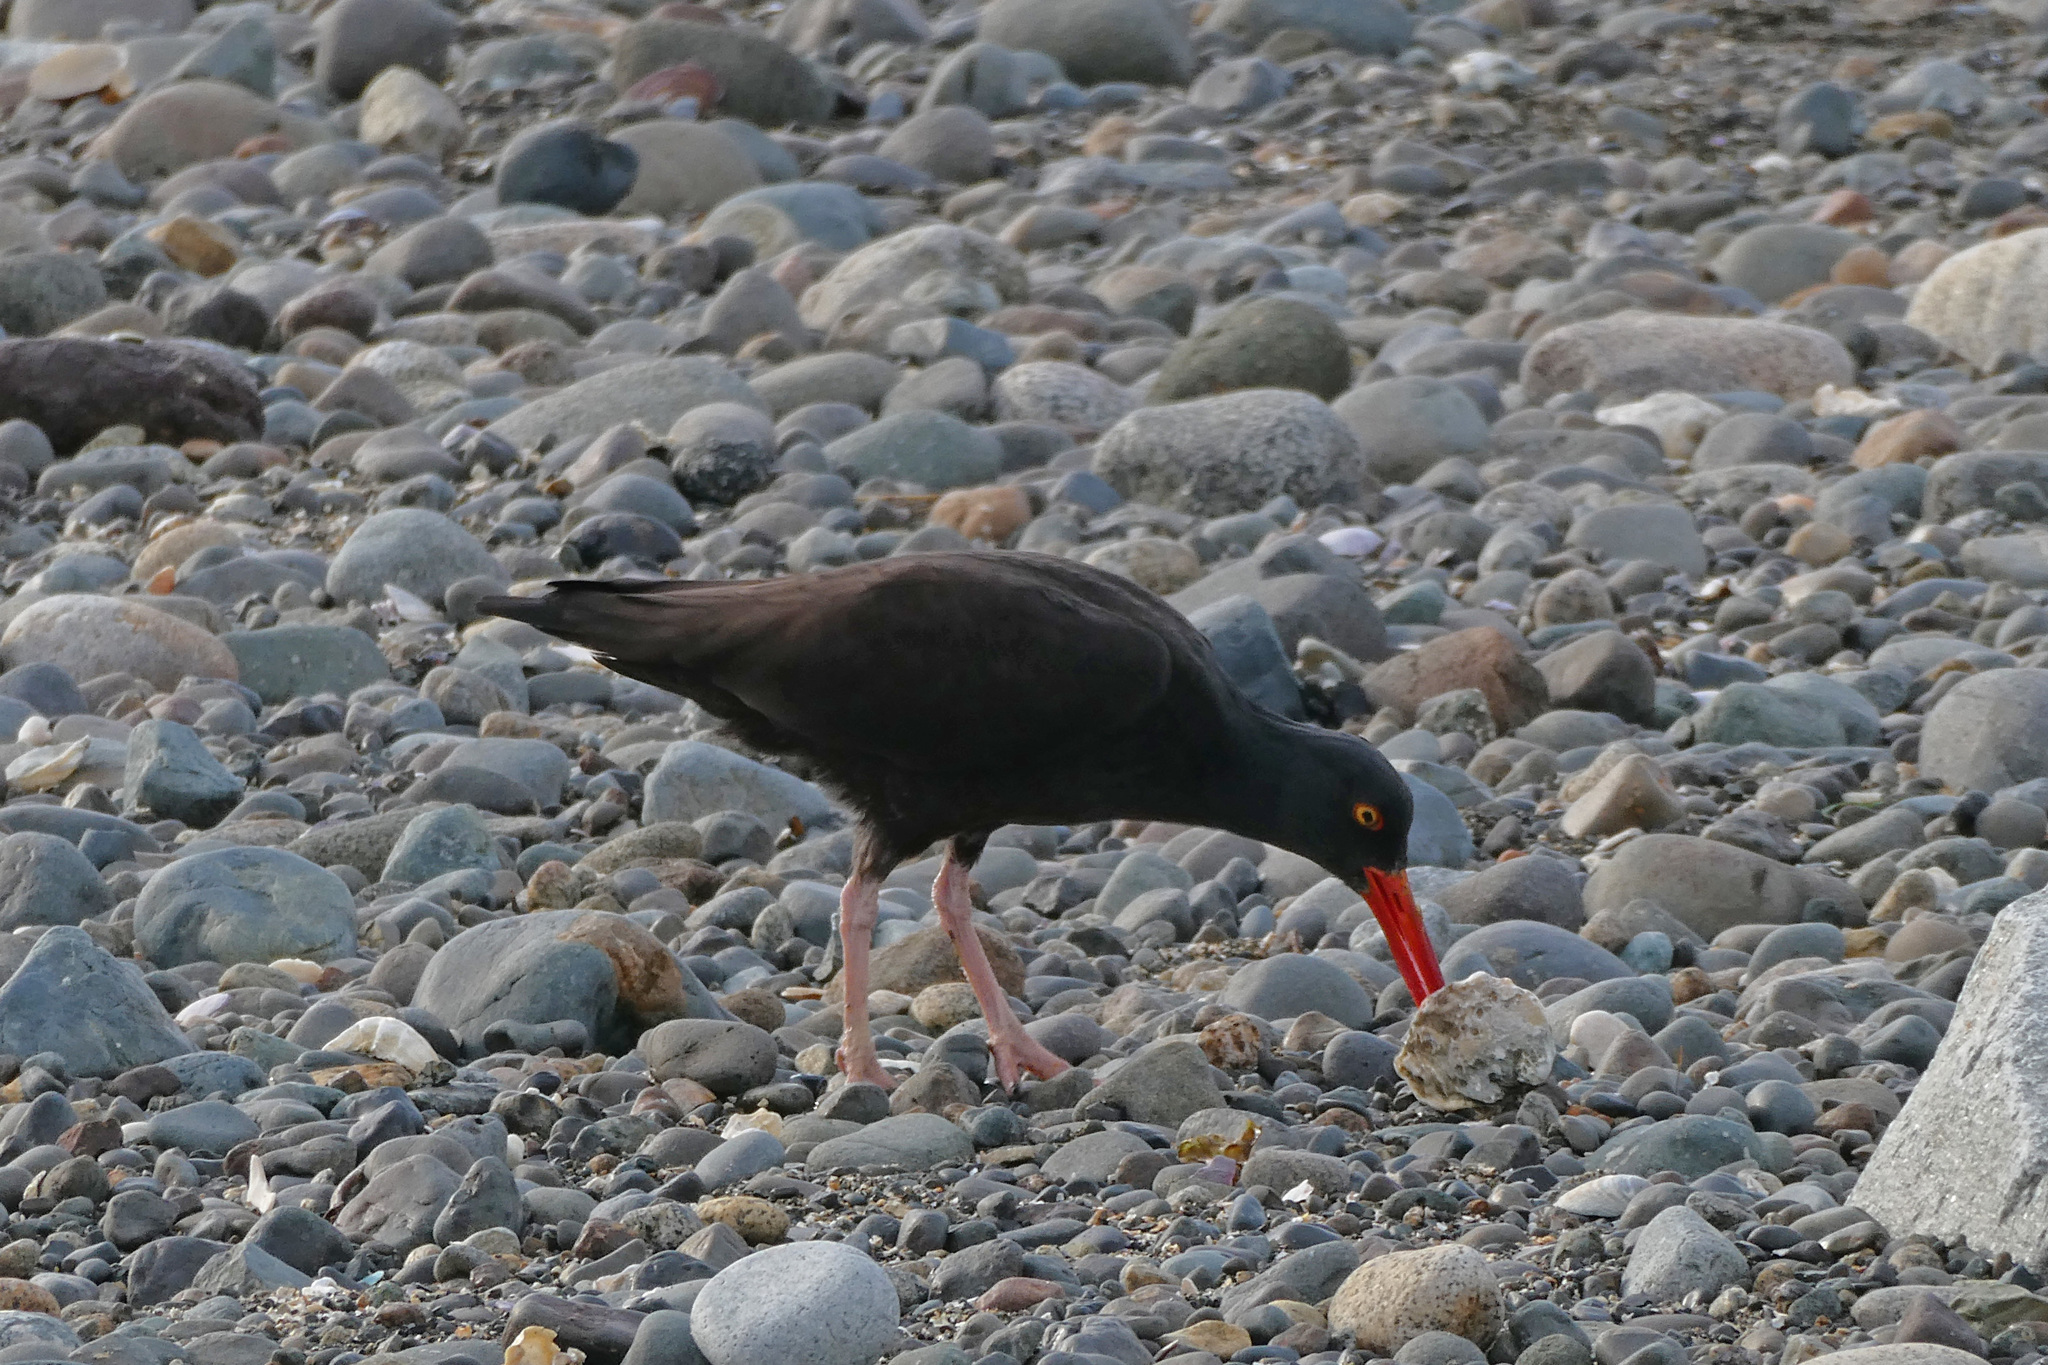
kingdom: Animalia
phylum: Chordata
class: Aves
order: Charadriiformes
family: Haematopodidae
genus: Haematopus
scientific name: Haematopus bachmani
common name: Black oystercatcher
